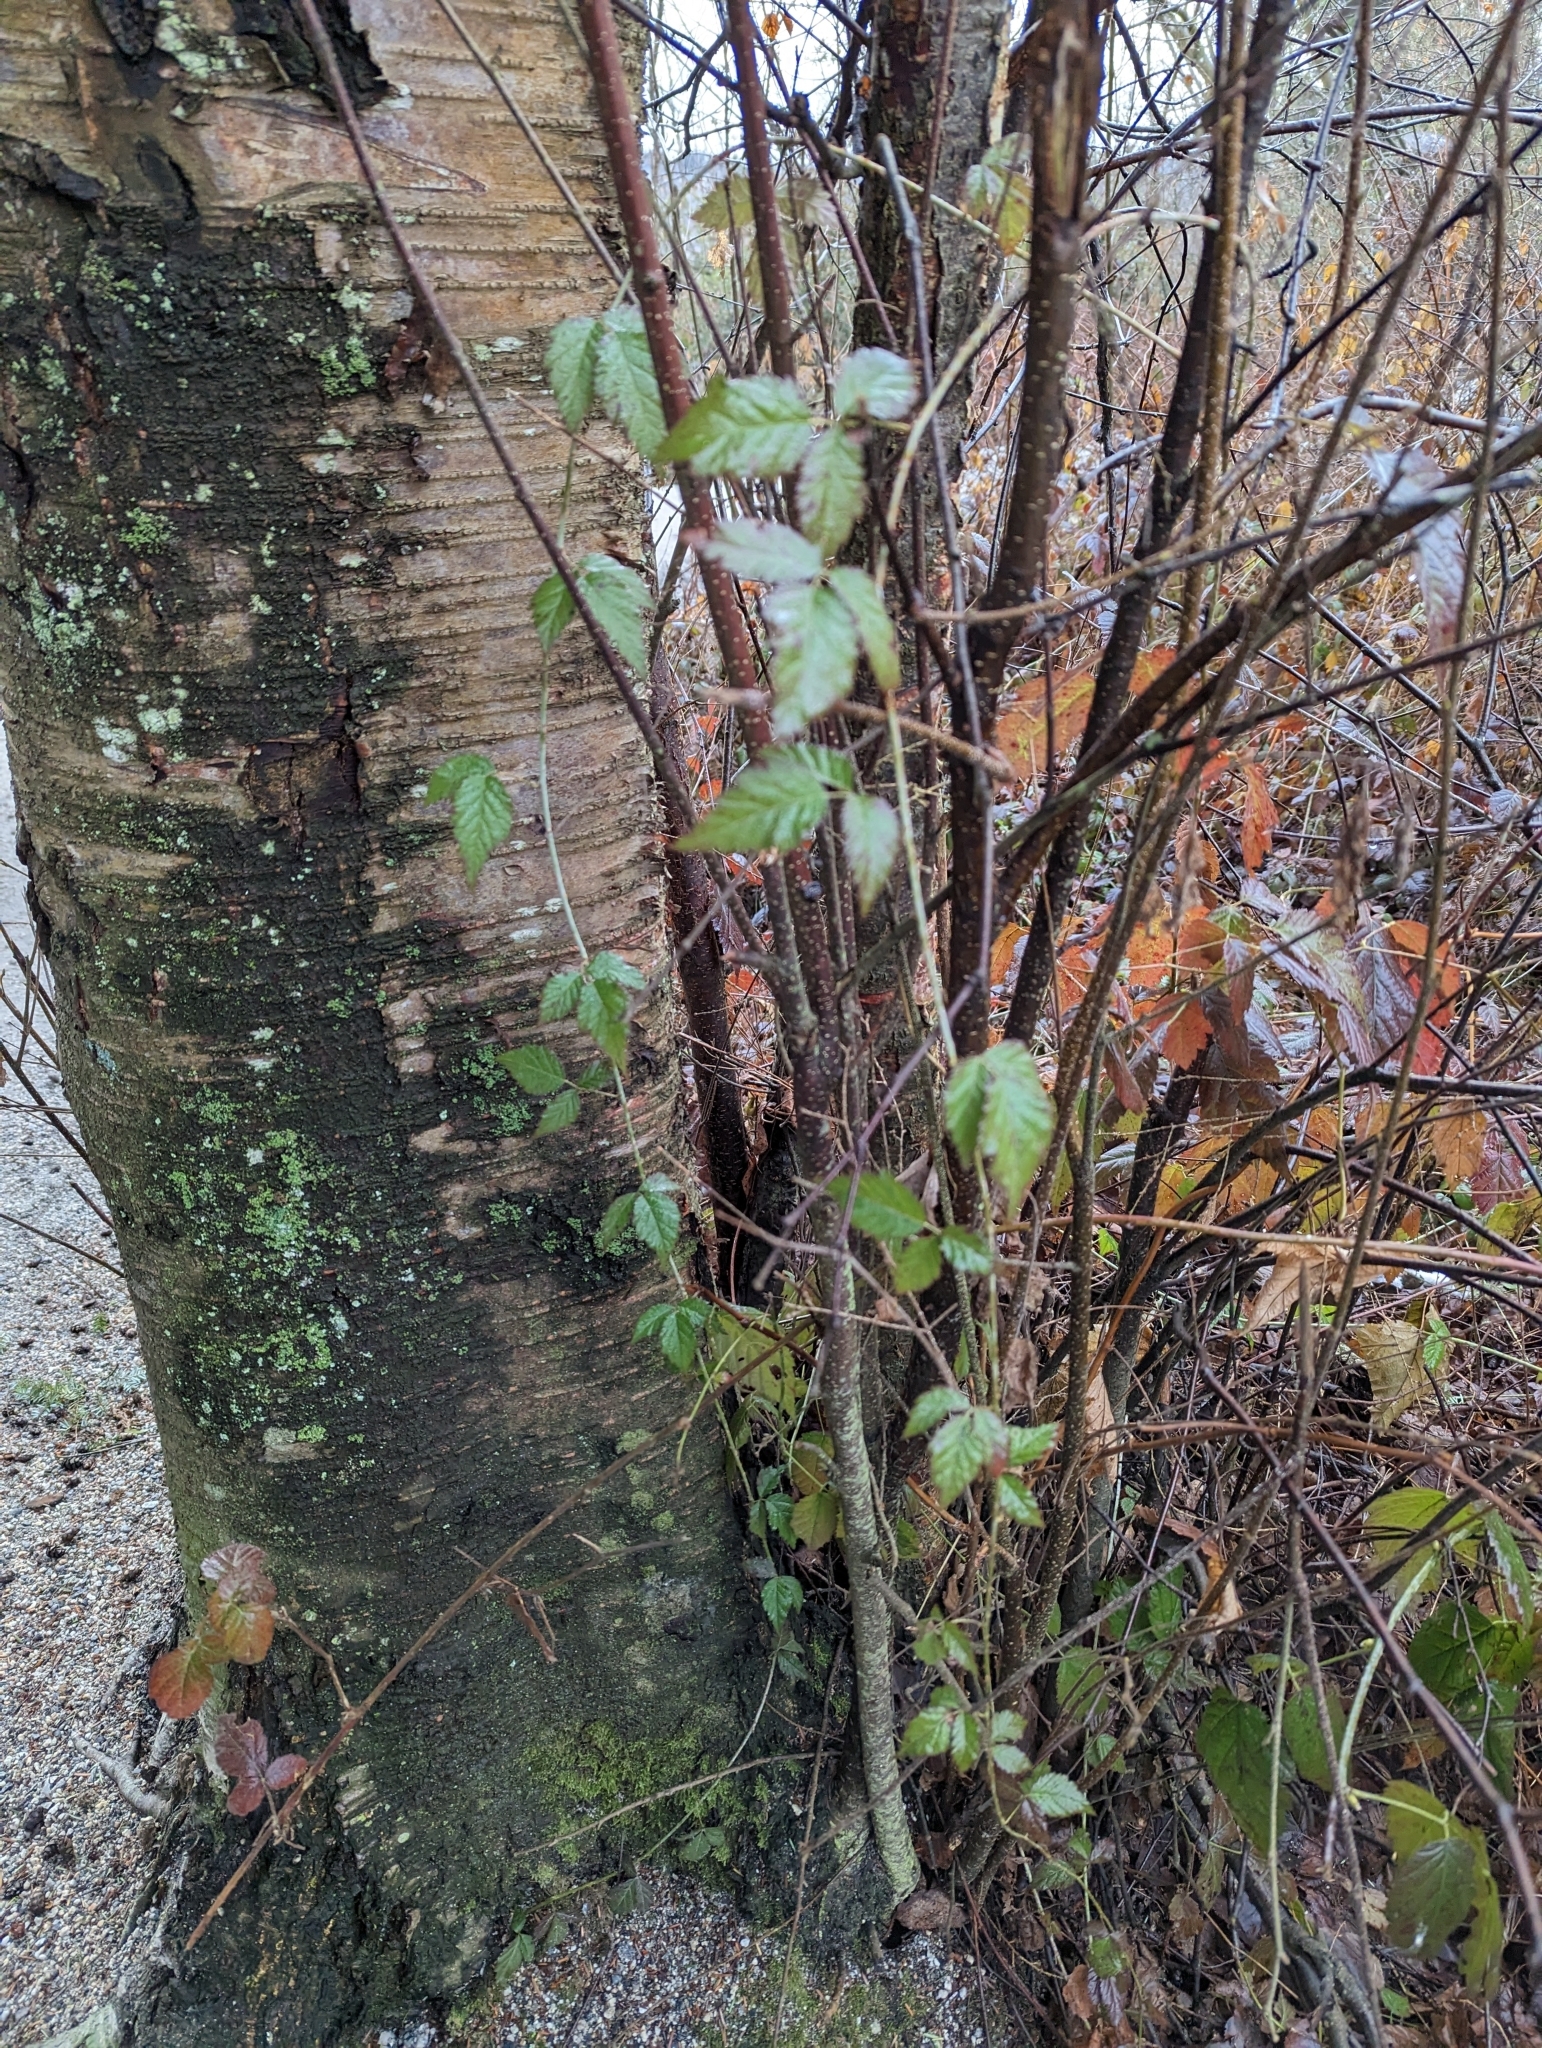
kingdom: Plantae
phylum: Tracheophyta
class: Magnoliopsida
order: Rosales
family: Rosaceae
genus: Rubus
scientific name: Rubus ursinus
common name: Pacific blackberry
